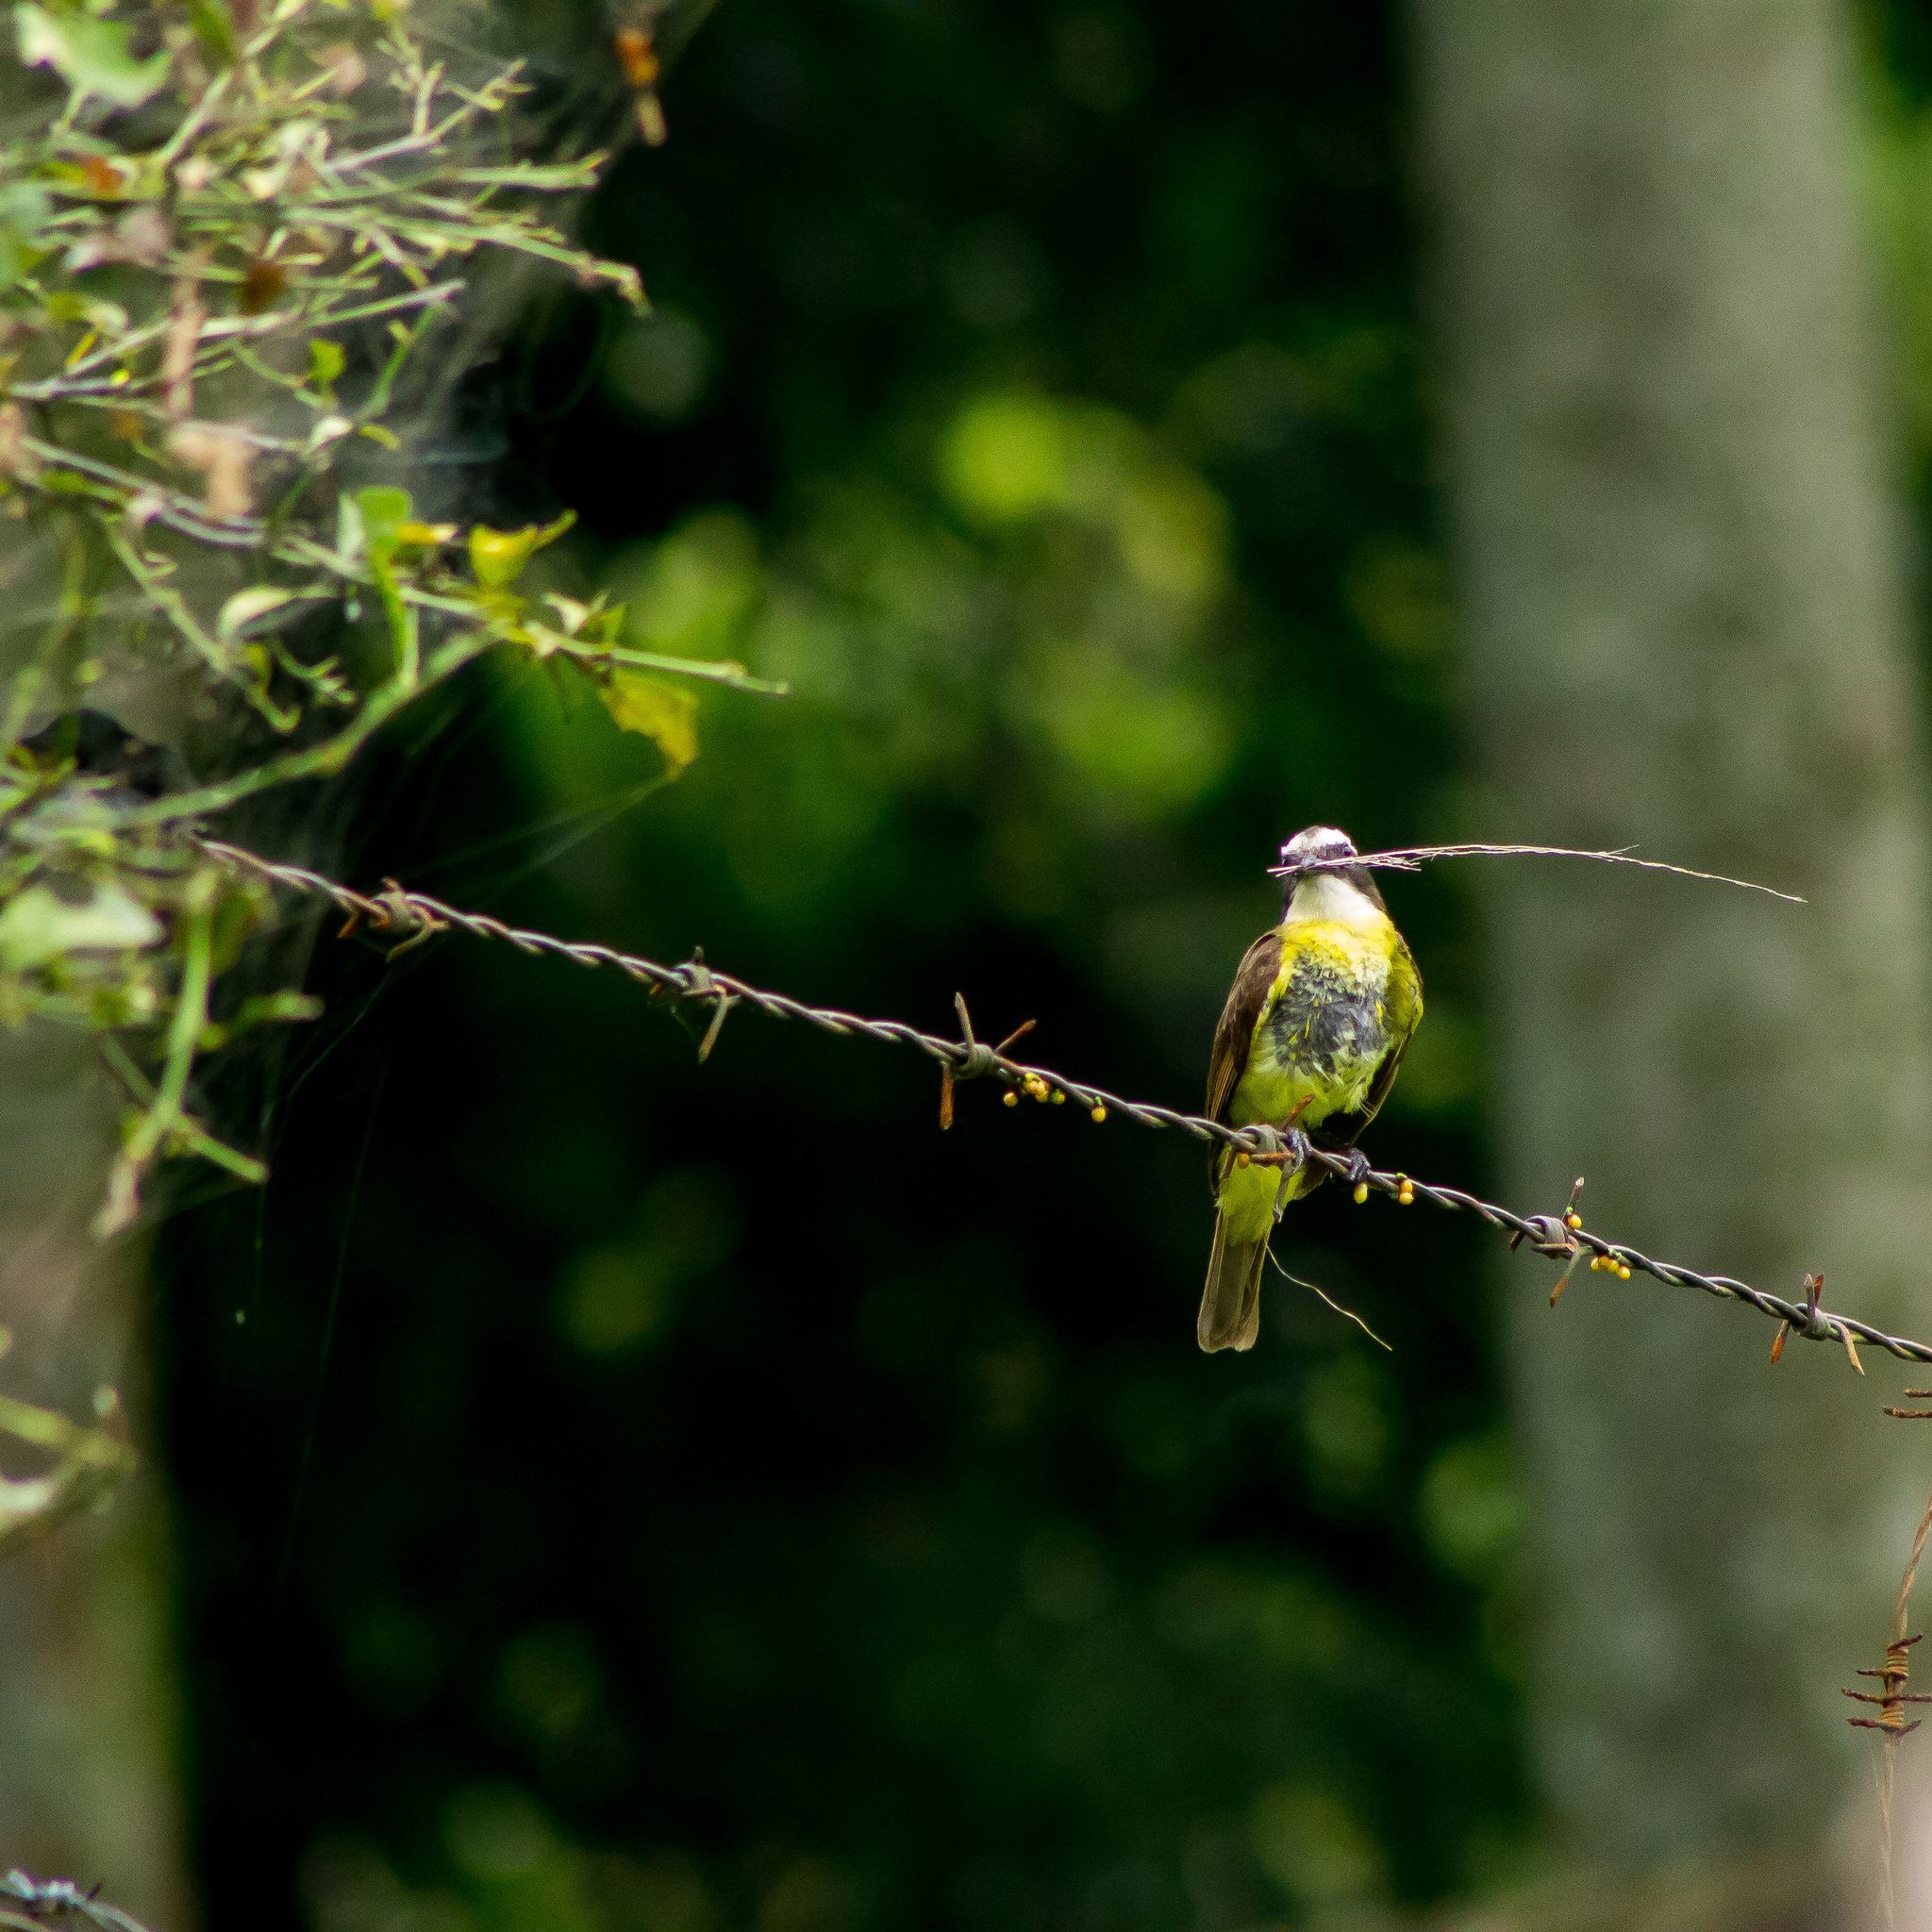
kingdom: Animalia
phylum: Chordata
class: Aves
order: Passeriformes
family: Tyrannidae
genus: Myiozetetes
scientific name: Myiozetetes cayanensis
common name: Rusty-margined flycatcher
